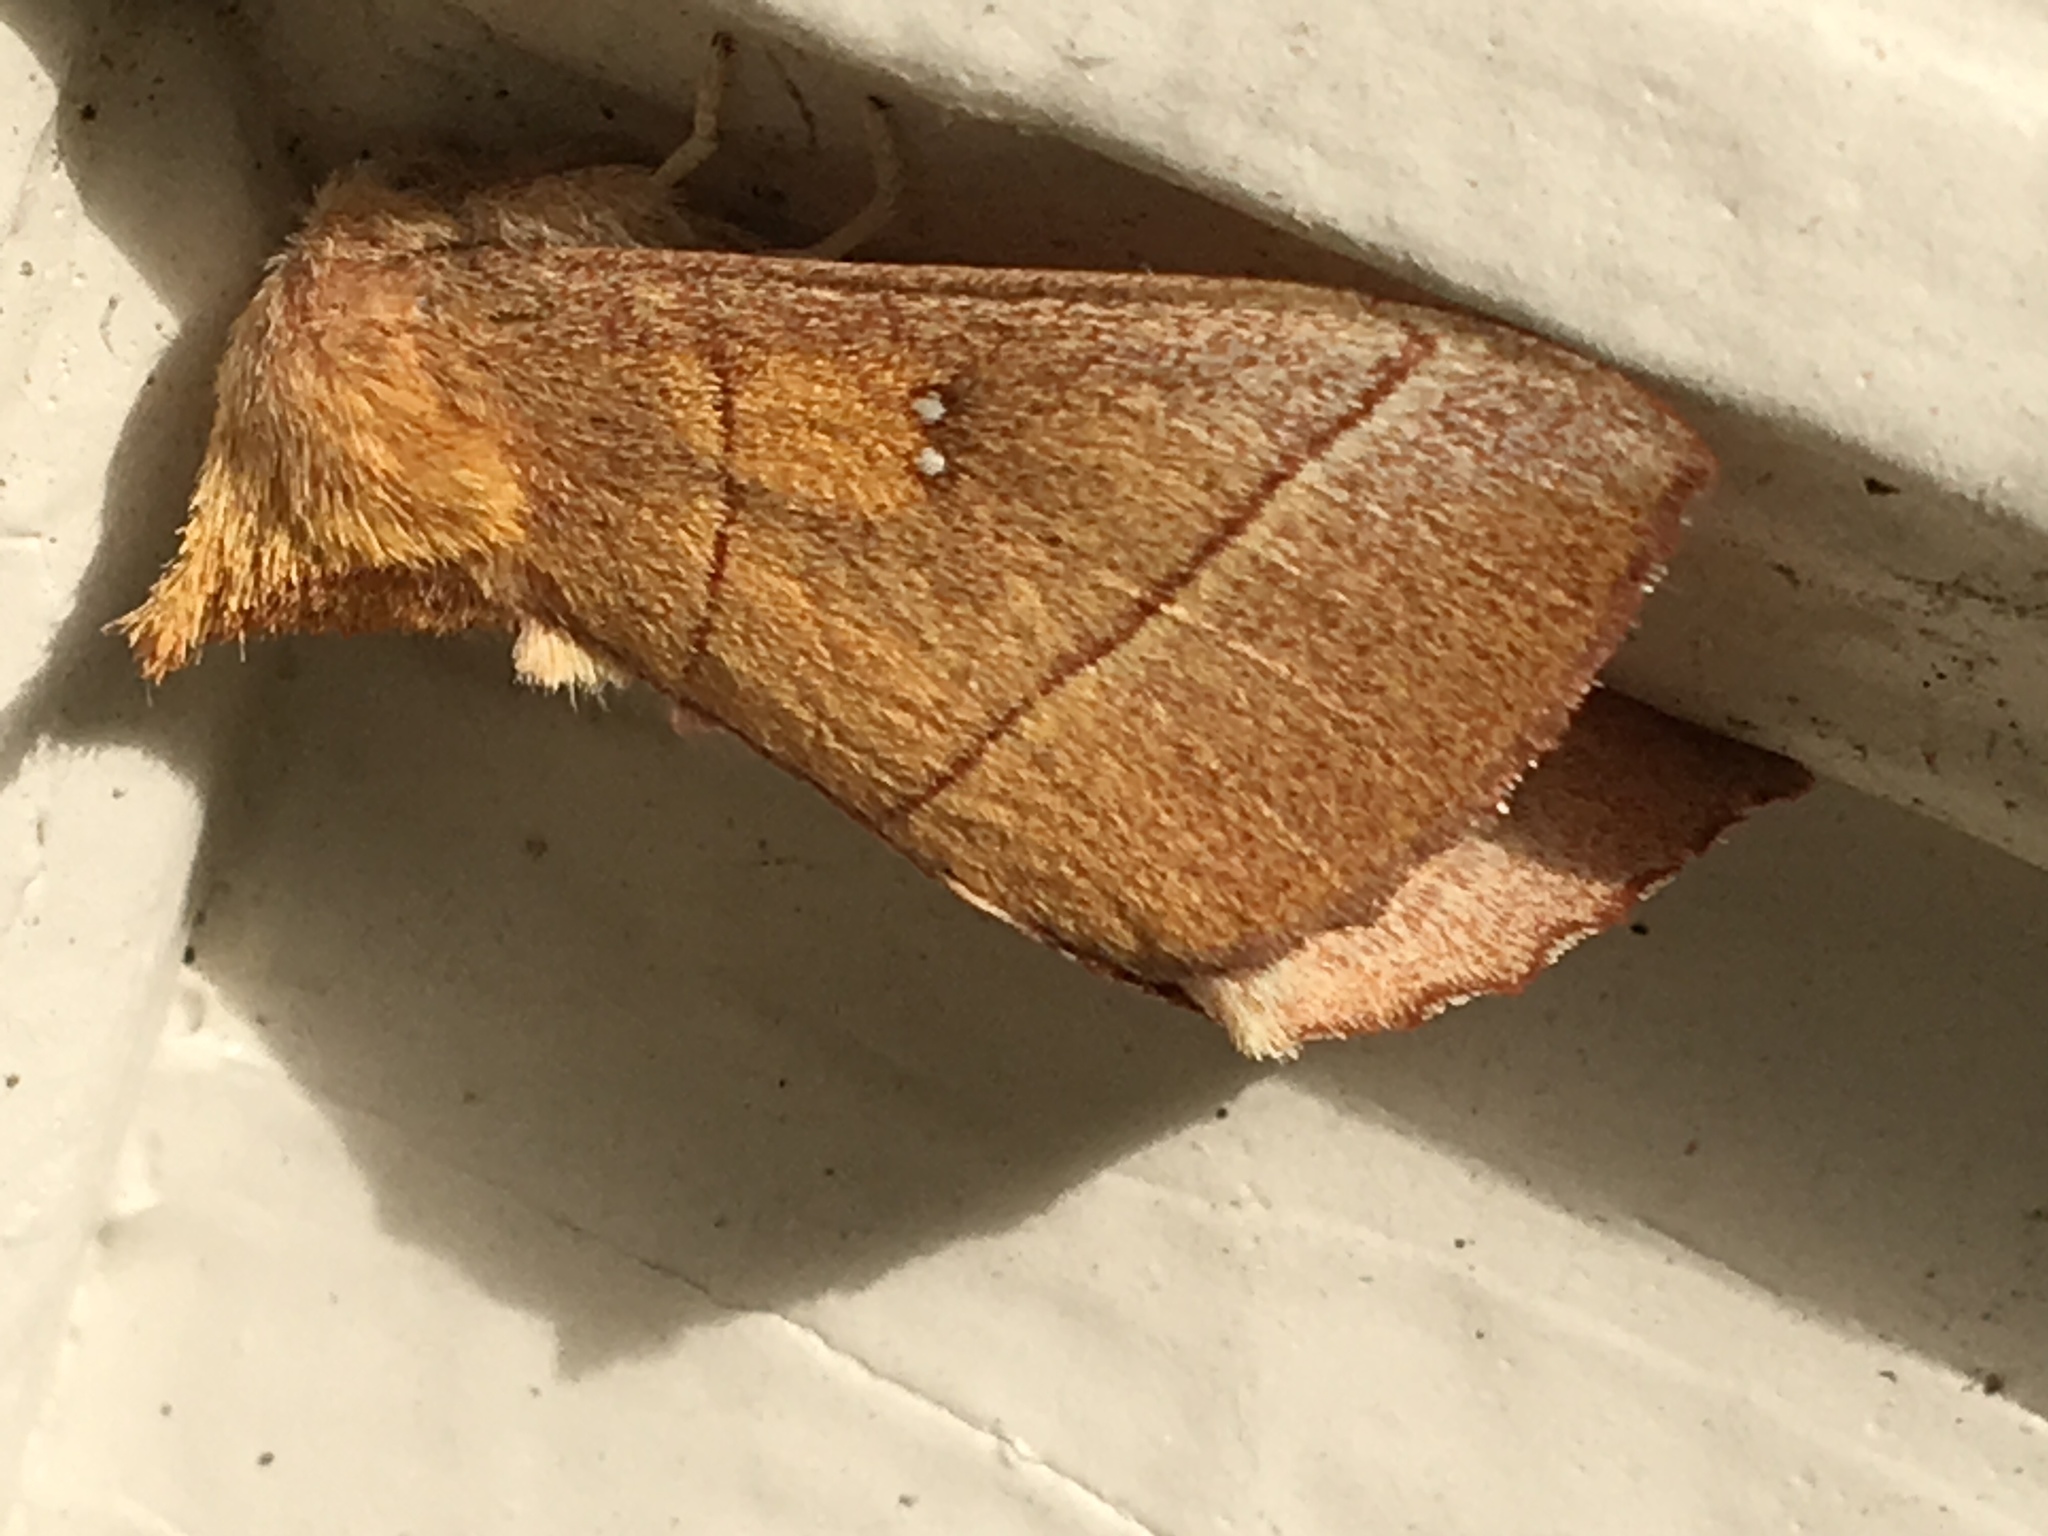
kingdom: Animalia
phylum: Arthropoda
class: Insecta
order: Lepidoptera
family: Notodontidae
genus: Nadata
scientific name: Nadata gibbosa
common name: White-dotted prominent
